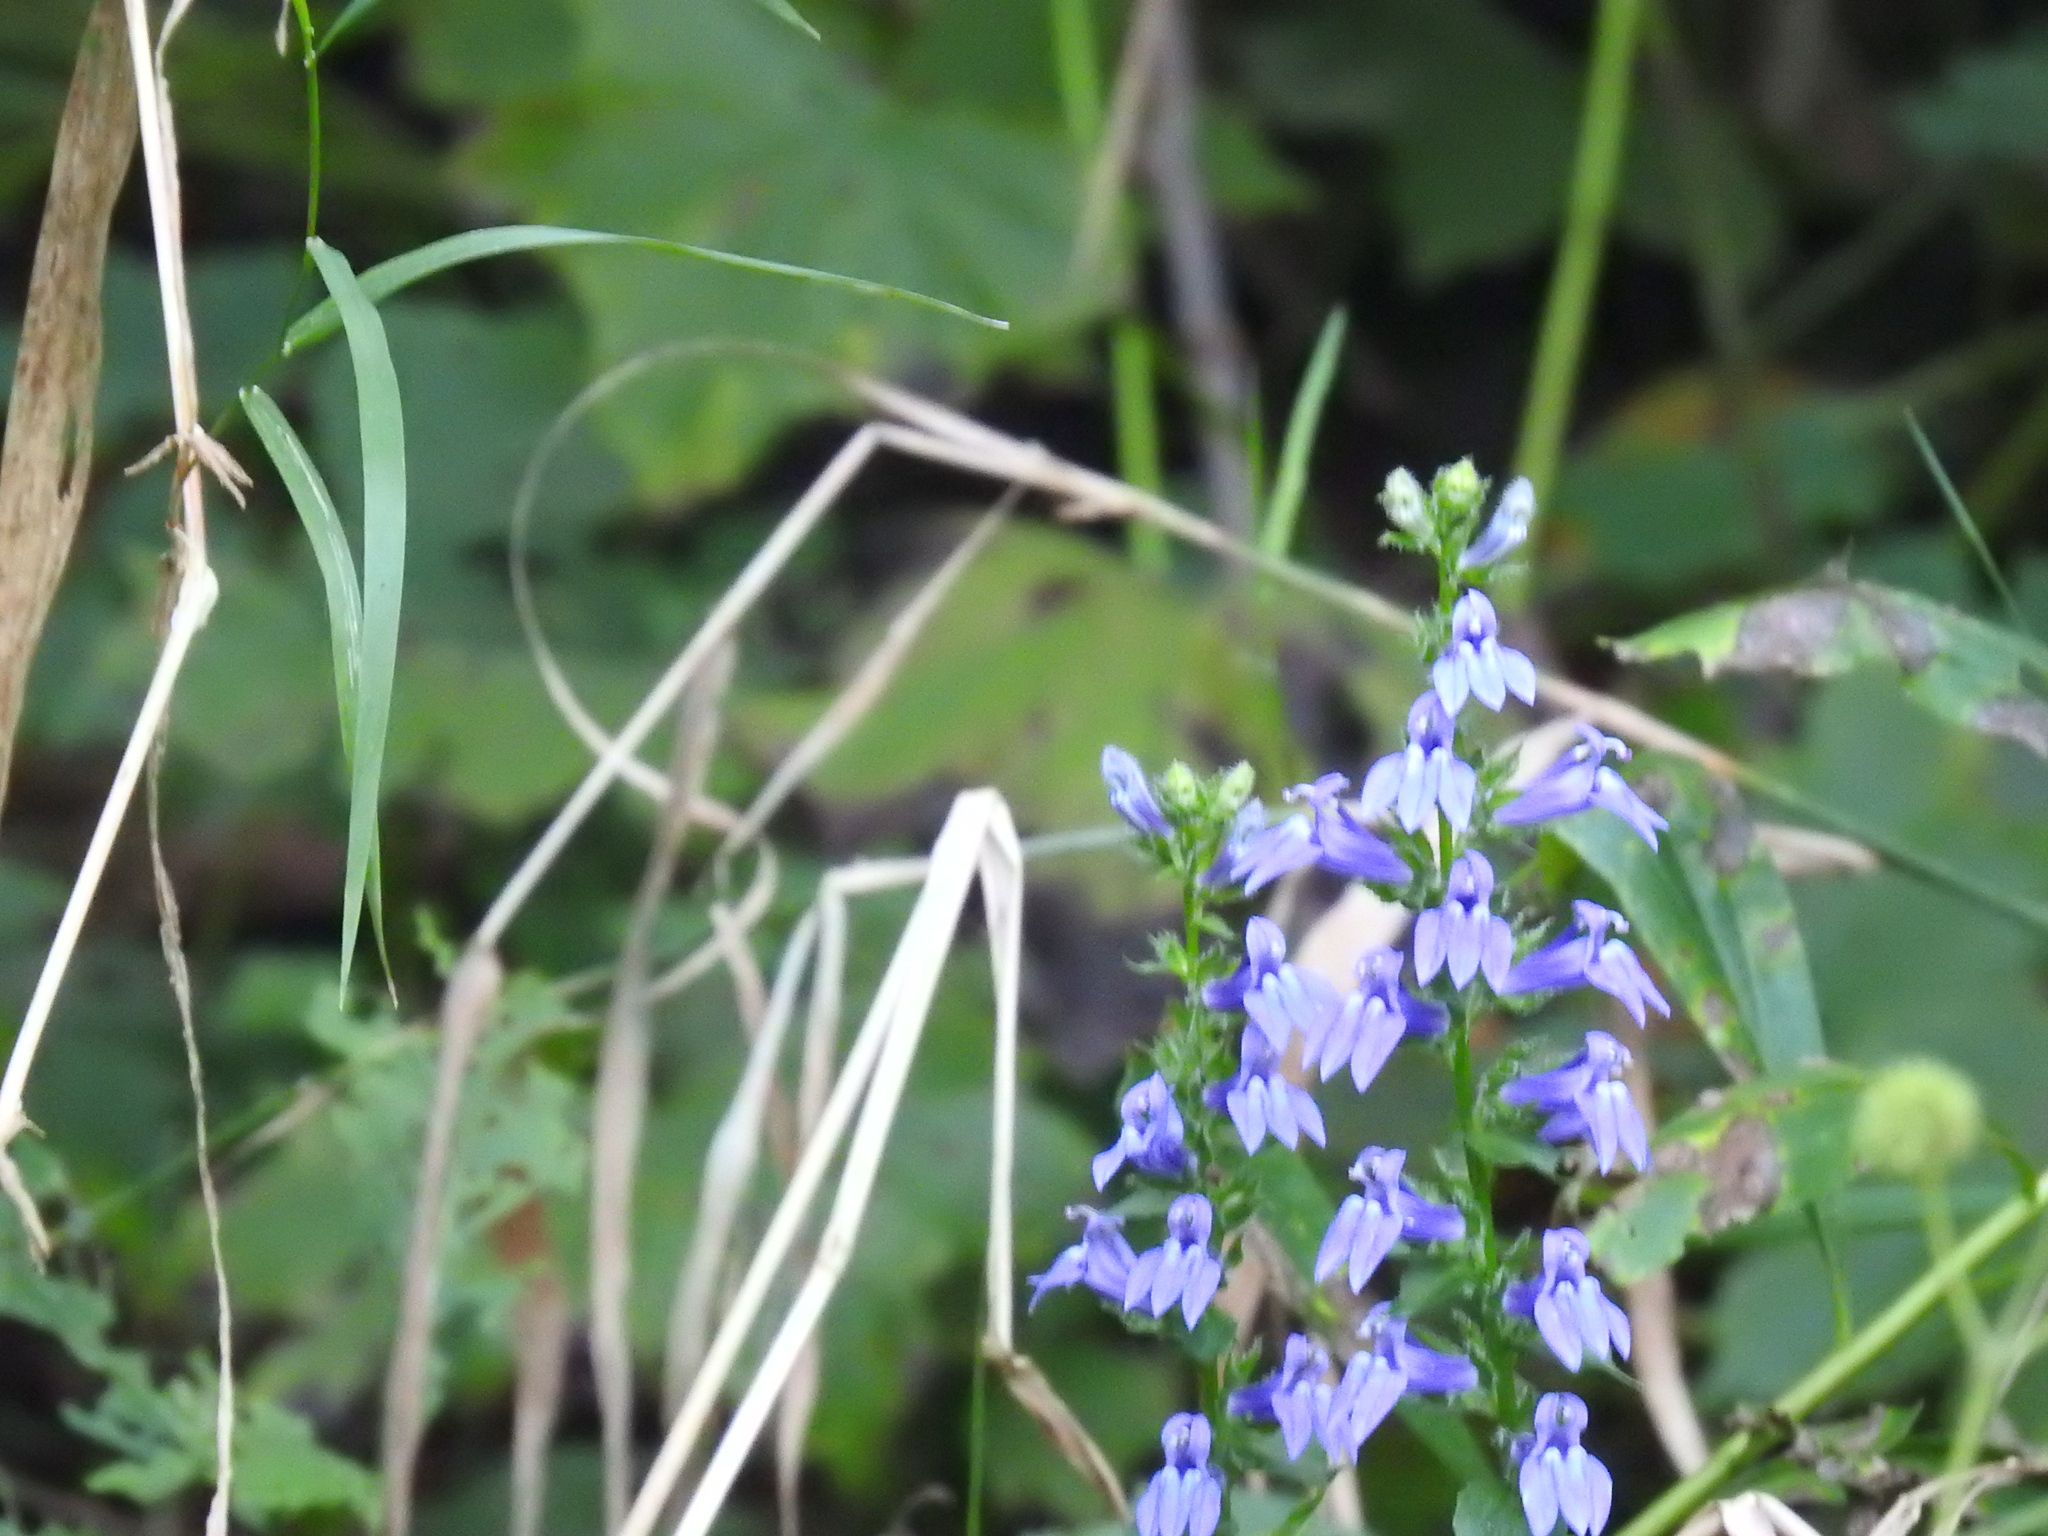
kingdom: Plantae
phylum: Tracheophyta
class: Magnoliopsida
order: Asterales
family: Campanulaceae
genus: Lobelia
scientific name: Lobelia siphilitica
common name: Great lobelia
